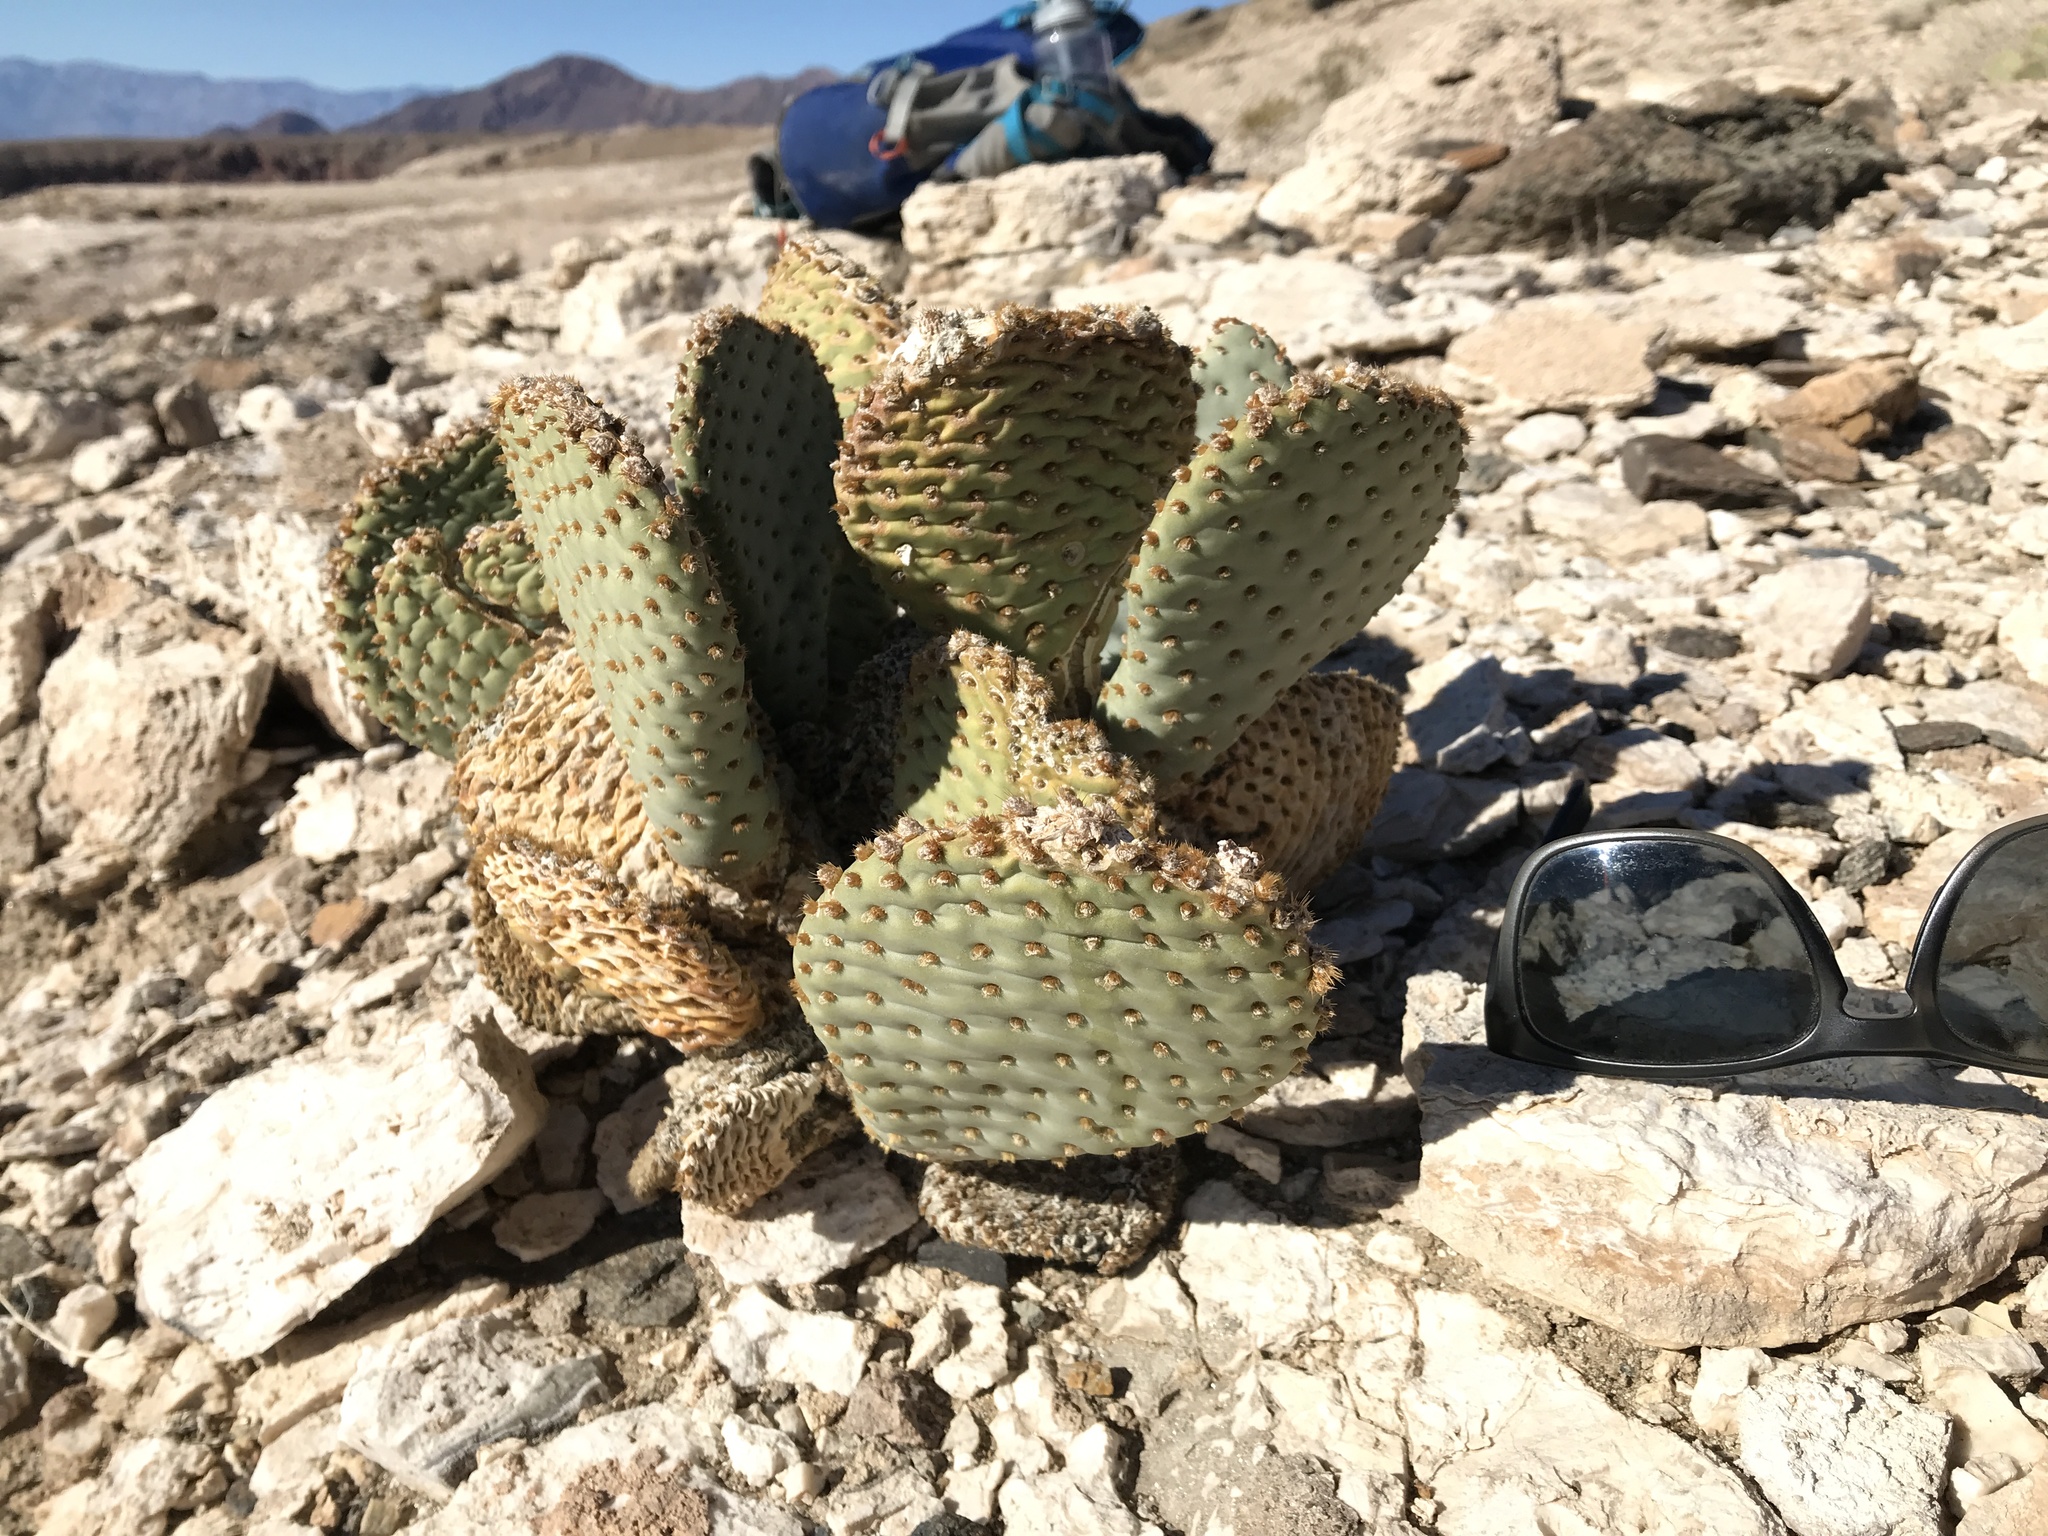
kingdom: Plantae
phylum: Tracheophyta
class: Magnoliopsida
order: Caryophyllales
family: Cactaceae
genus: Opuntia
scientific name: Opuntia basilaris
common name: Beavertail prickly-pear
